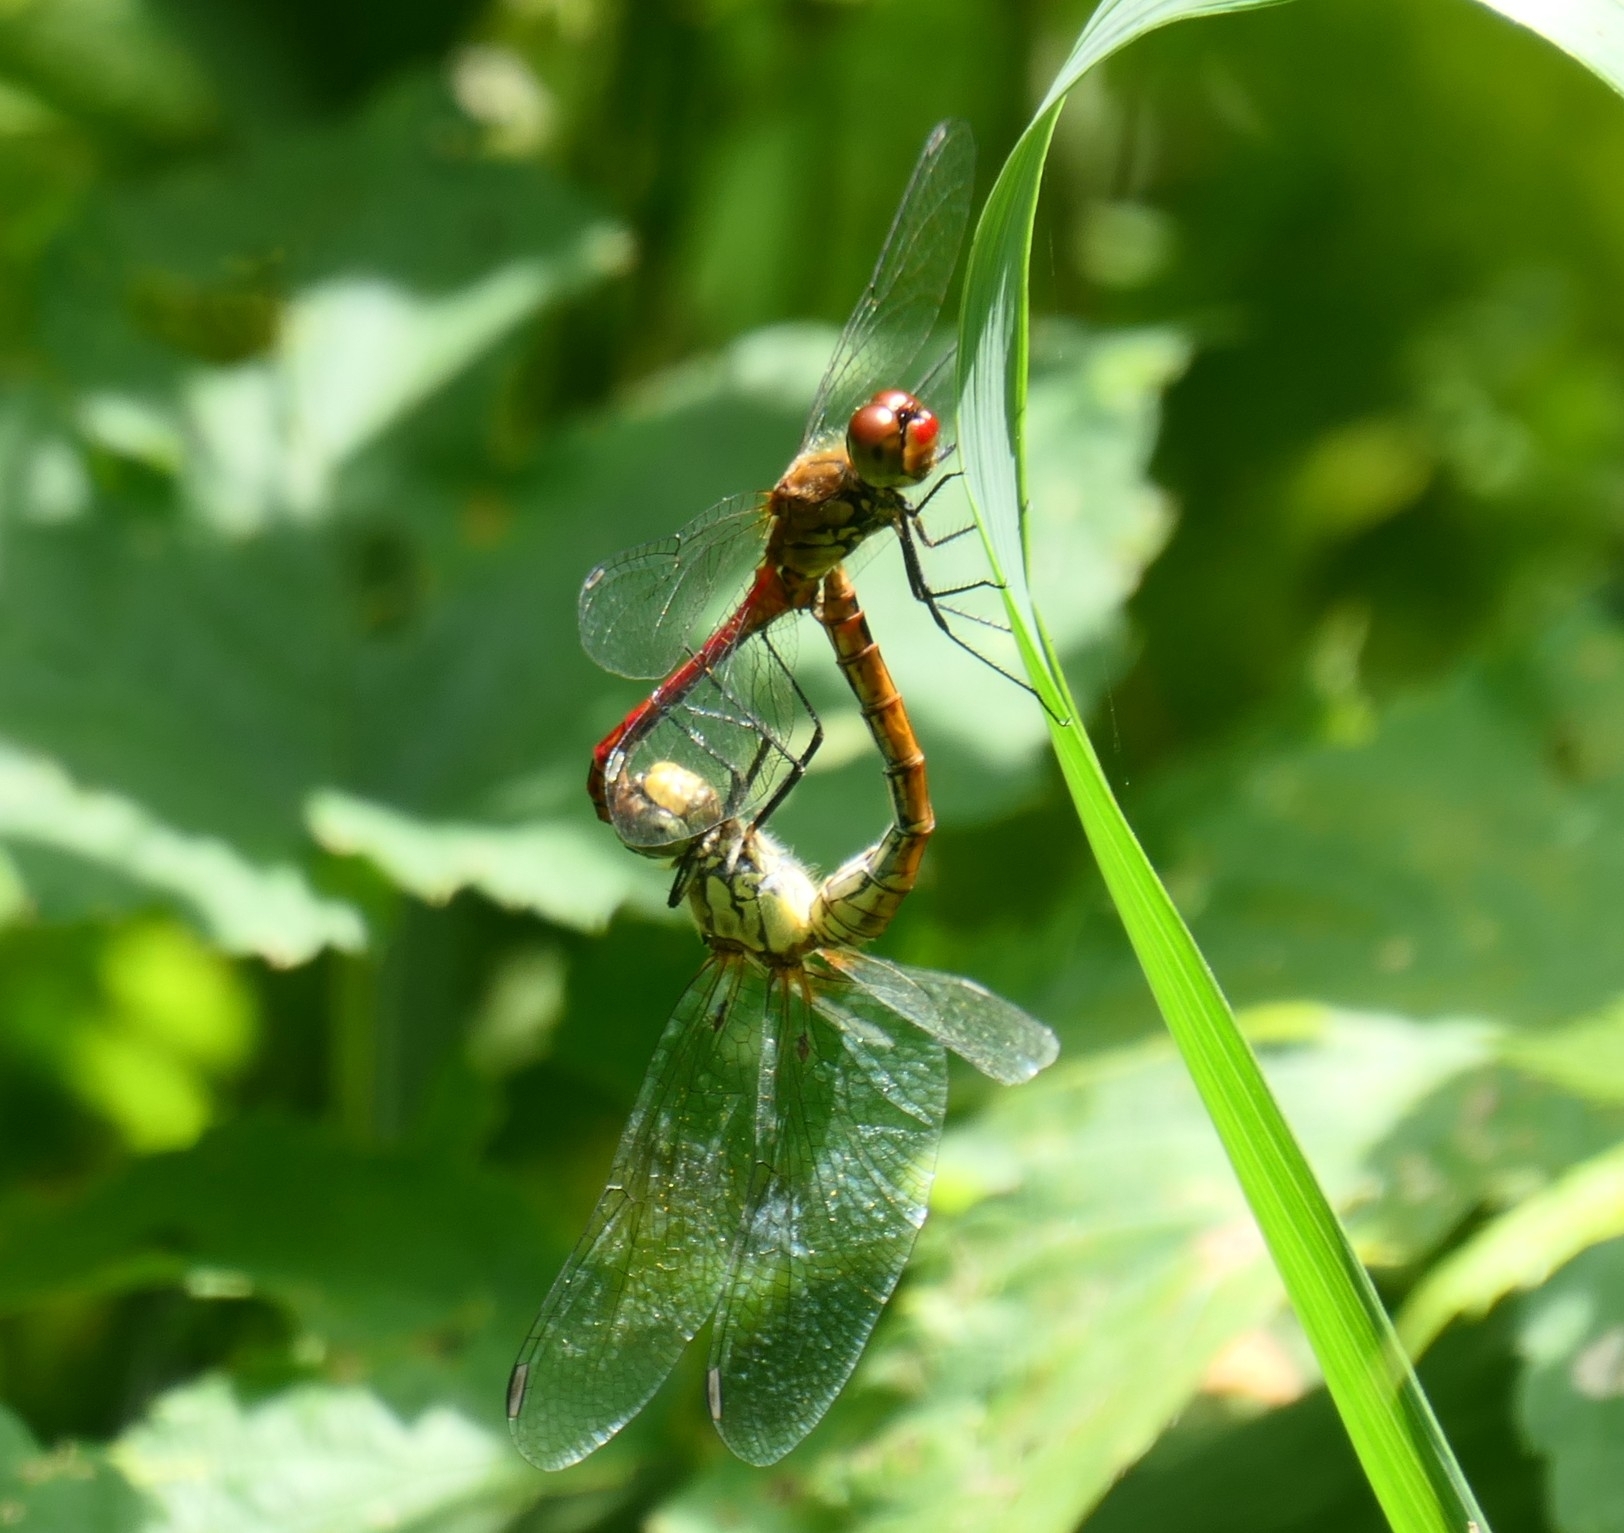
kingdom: Animalia
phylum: Arthropoda
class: Insecta
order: Odonata
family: Libellulidae
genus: Sympetrum
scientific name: Sympetrum sanguineum
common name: Ruddy darter
